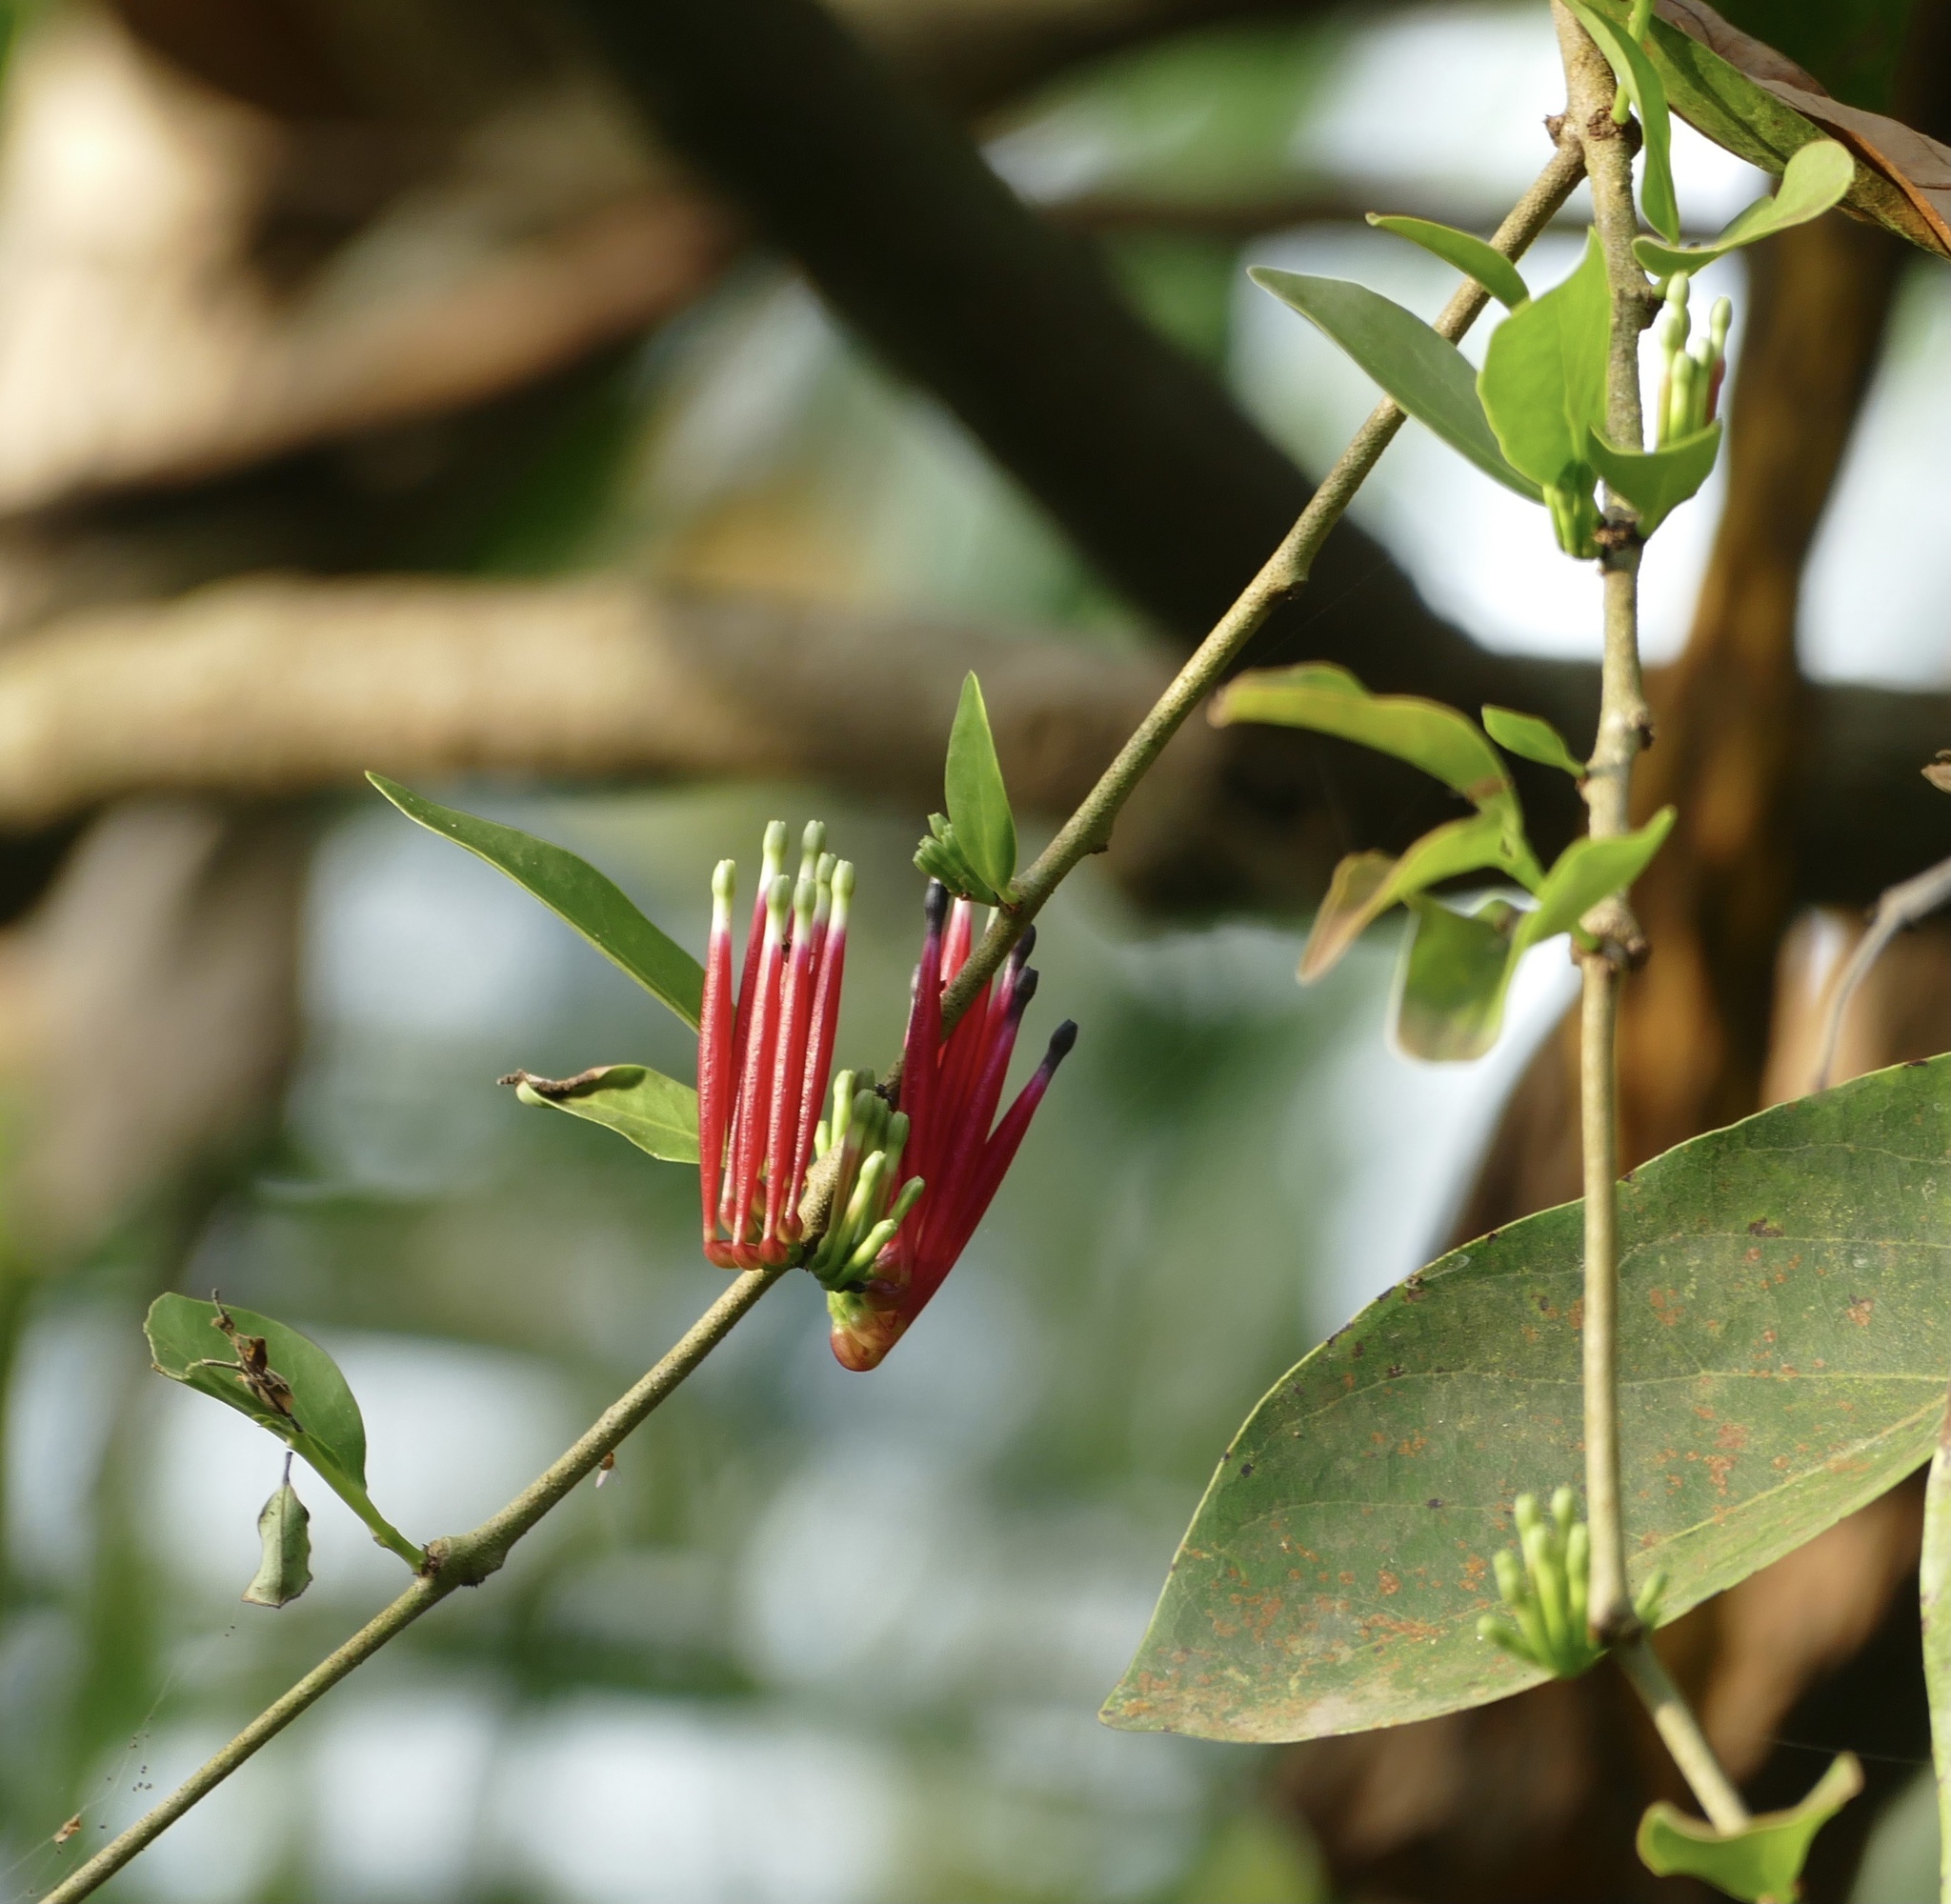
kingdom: Plantae
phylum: Tracheophyta
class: Magnoliopsida
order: Santalales
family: Loranthaceae
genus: Tapinanthus
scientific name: Tapinanthus globiferus
